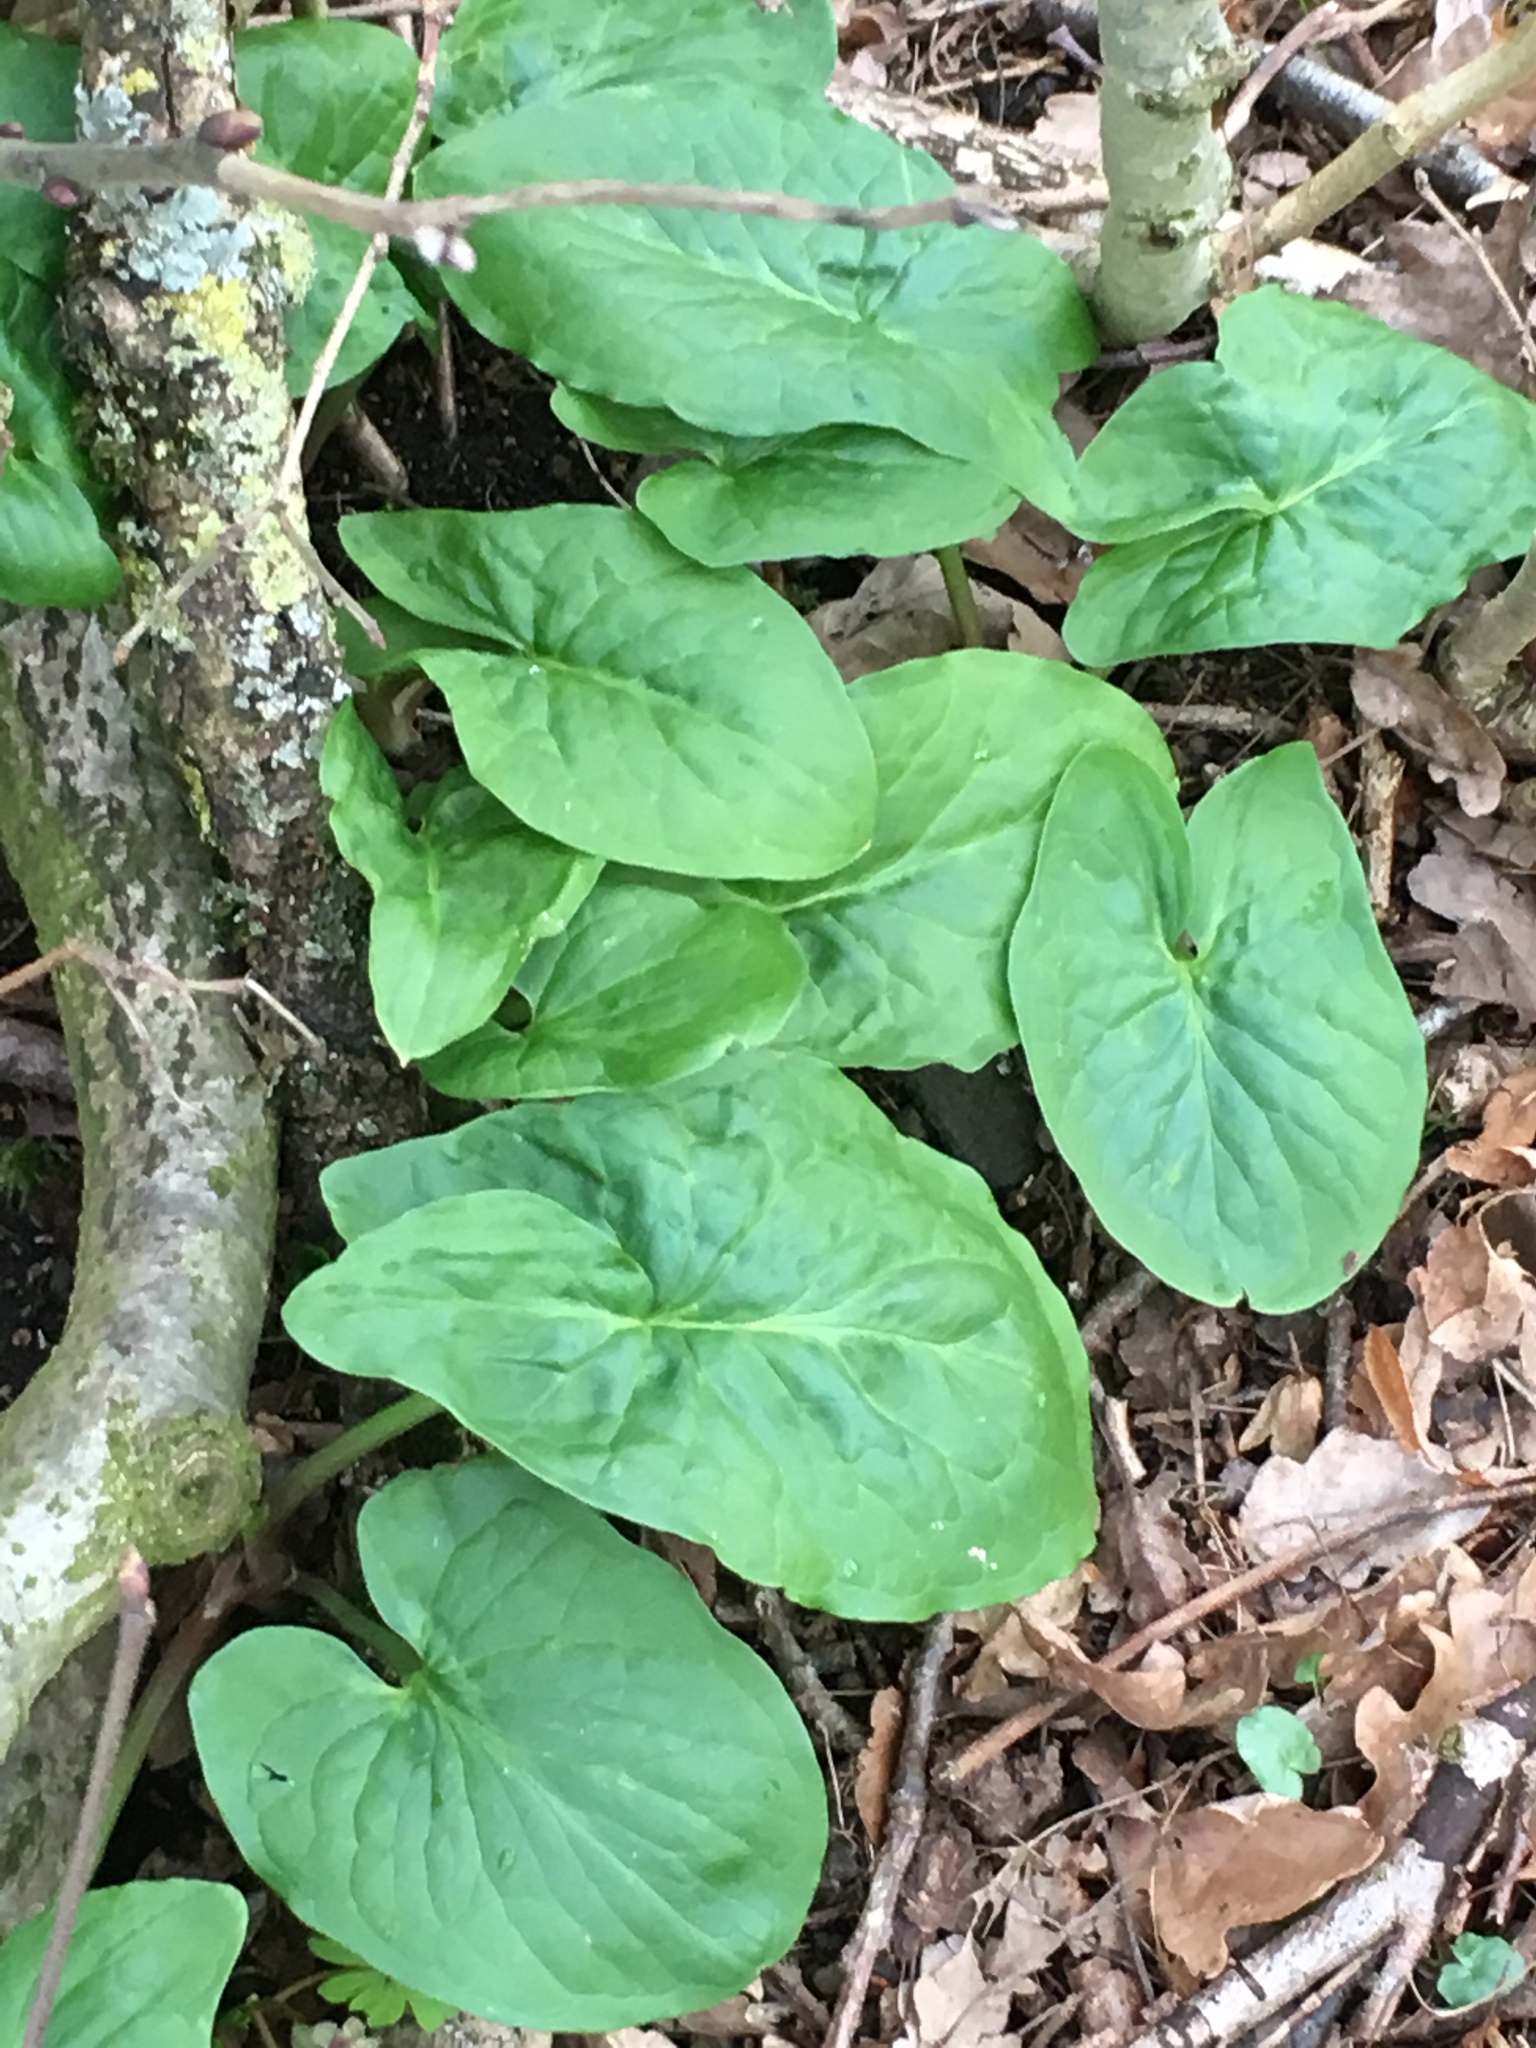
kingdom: Plantae
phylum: Tracheophyta
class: Liliopsida
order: Alismatales
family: Araceae
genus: Arum
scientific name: Arum maculatum
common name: Lords-and-ladies
